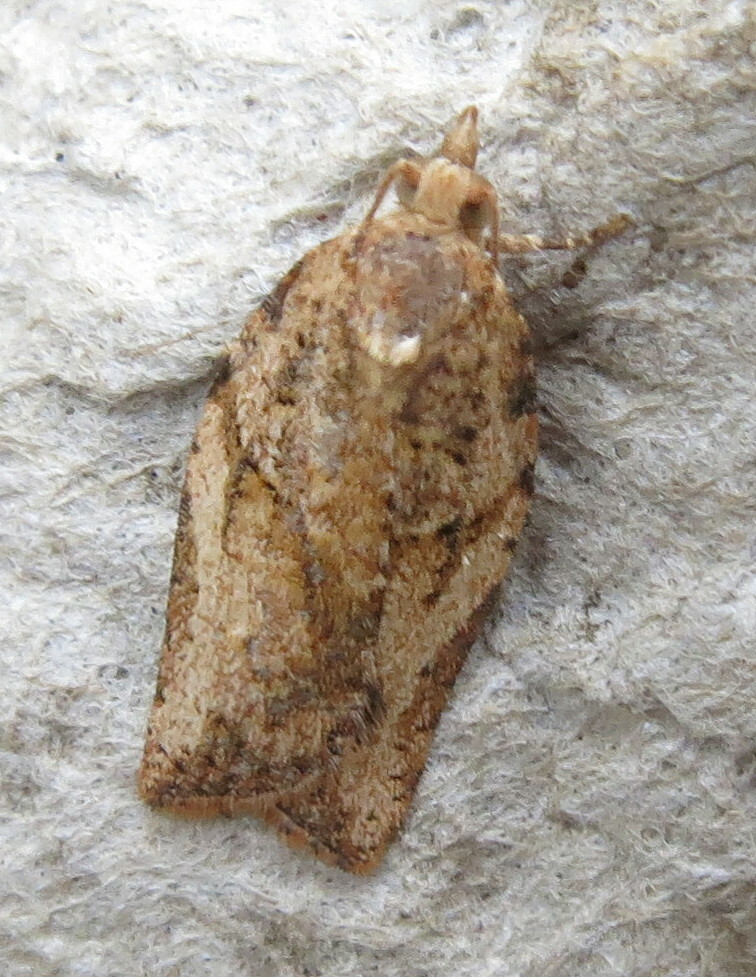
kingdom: Animalia
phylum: Arthropoda
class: Insecta
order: Lepidoptera
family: Tortricidae
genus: Epiphyas
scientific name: Epiphyas postvittana
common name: Light brown apple moth
